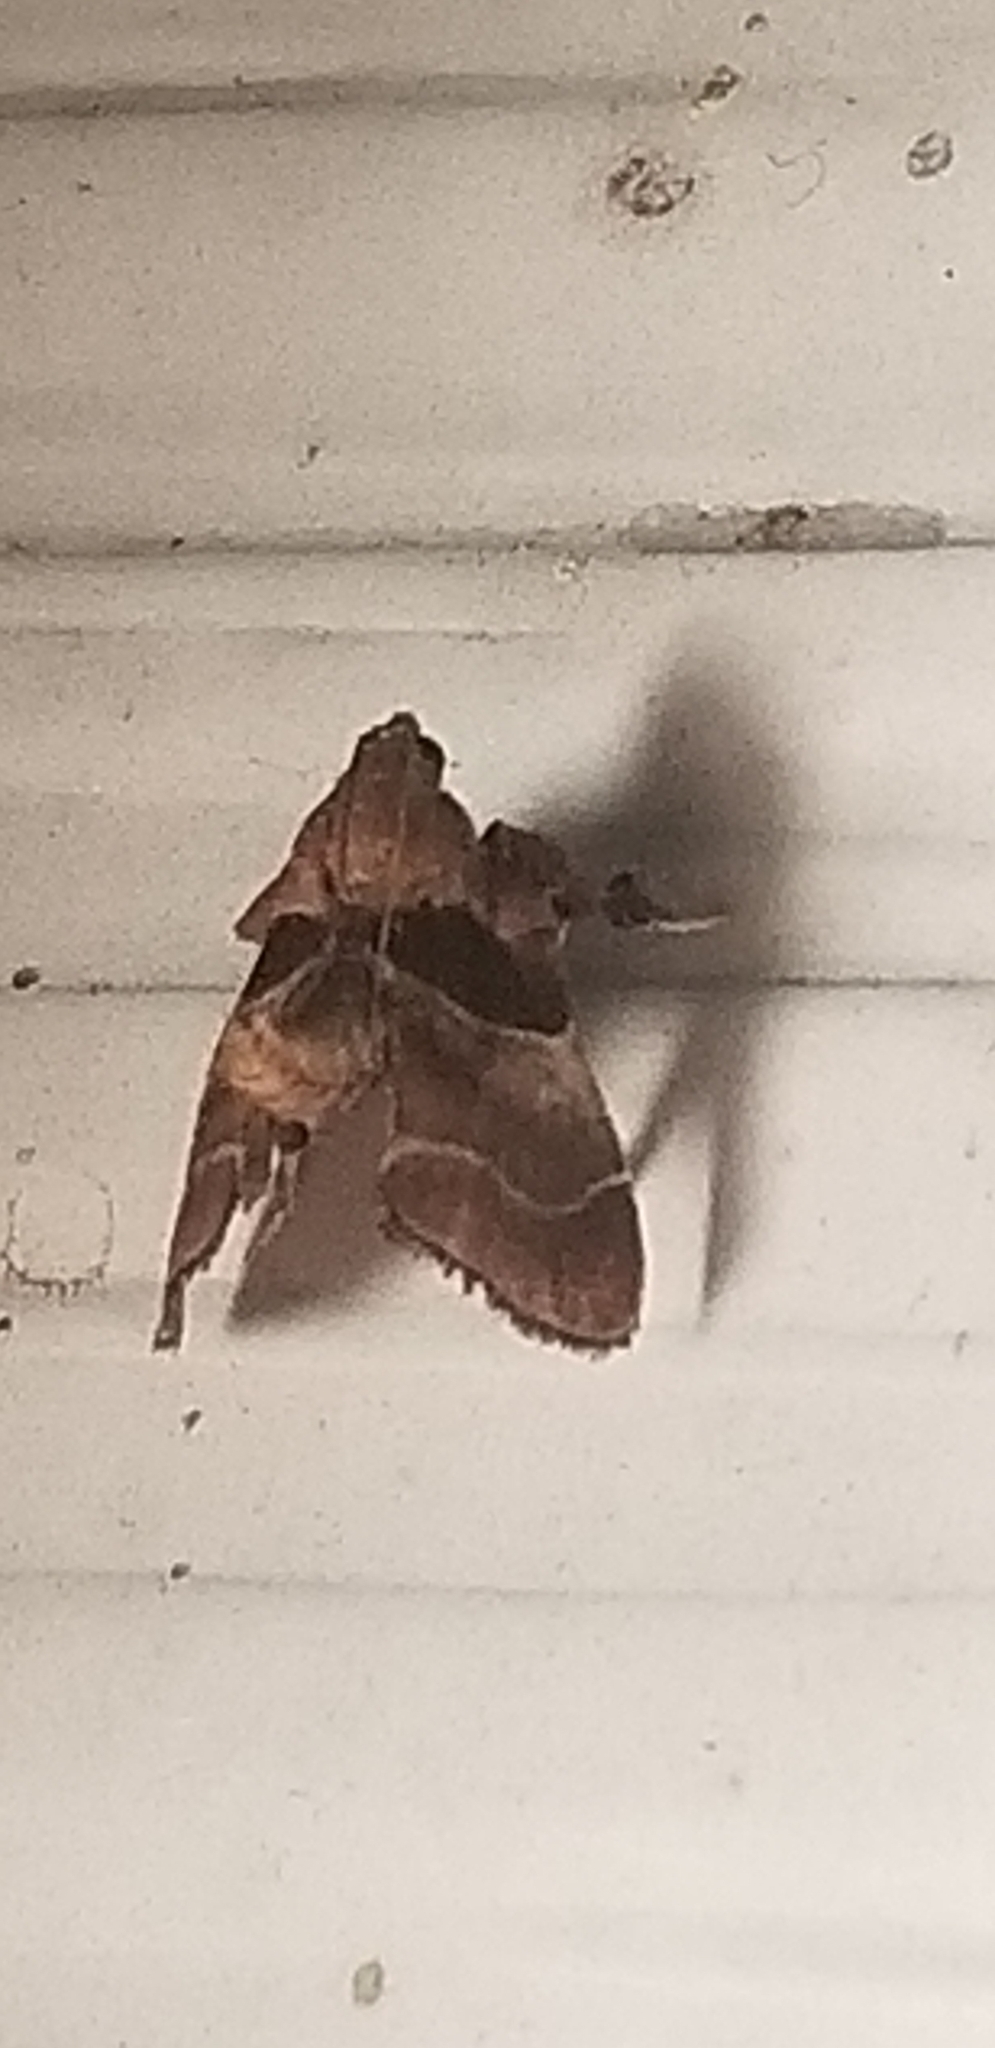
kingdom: Animalia
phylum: Arthropoda
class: Insecta
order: Lepidoptera
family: Pyralidae
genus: Tosale
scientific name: Tosale oviplagalis
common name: Dimorphic tosale moth
